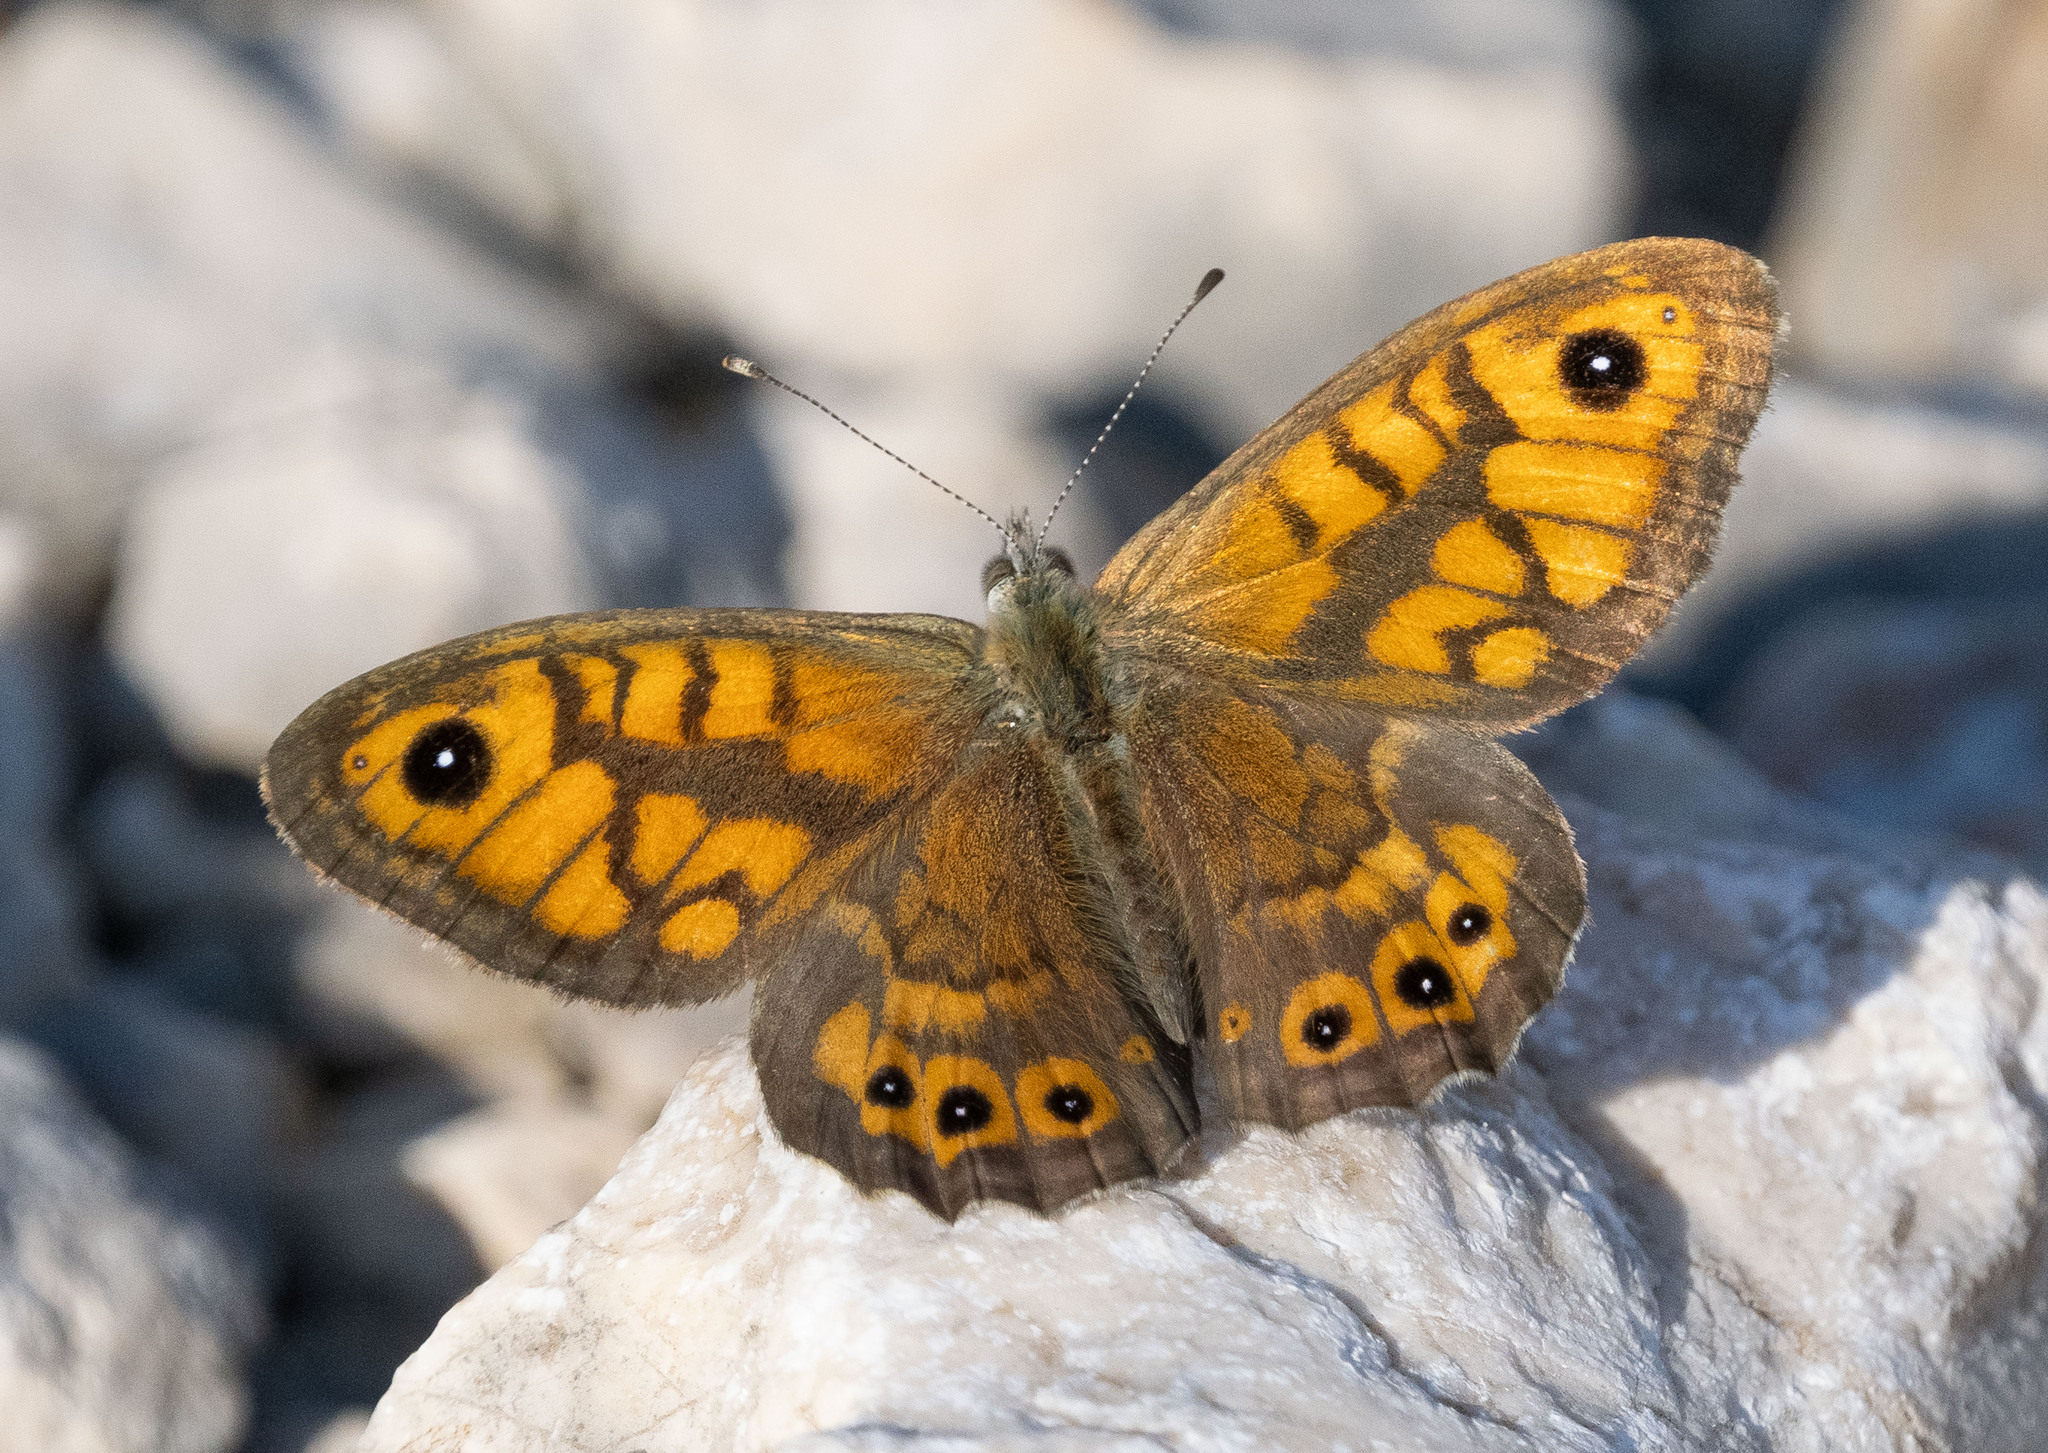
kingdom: Animalia
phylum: Arthropoda
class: Insecta
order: Lepidoptera
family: Nymphalidae
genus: Pararge
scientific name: Pararge Lasiommata megera
